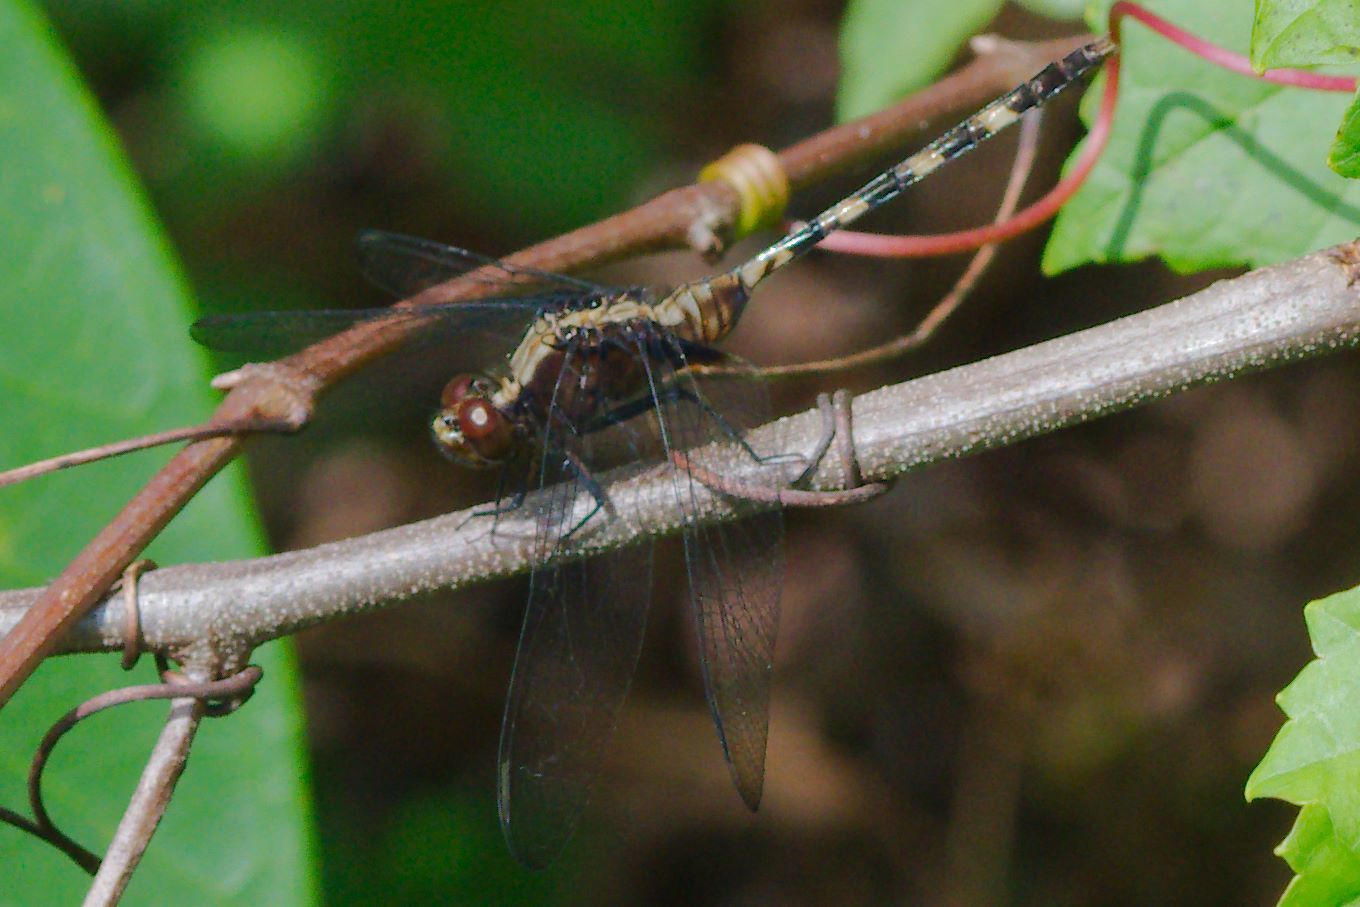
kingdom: Animalia
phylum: Arthropoda
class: Insecta
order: Odonata
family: Libellulidae
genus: Erythemis
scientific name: Erythemis plebeja
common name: Pin-tailed pondhawk
